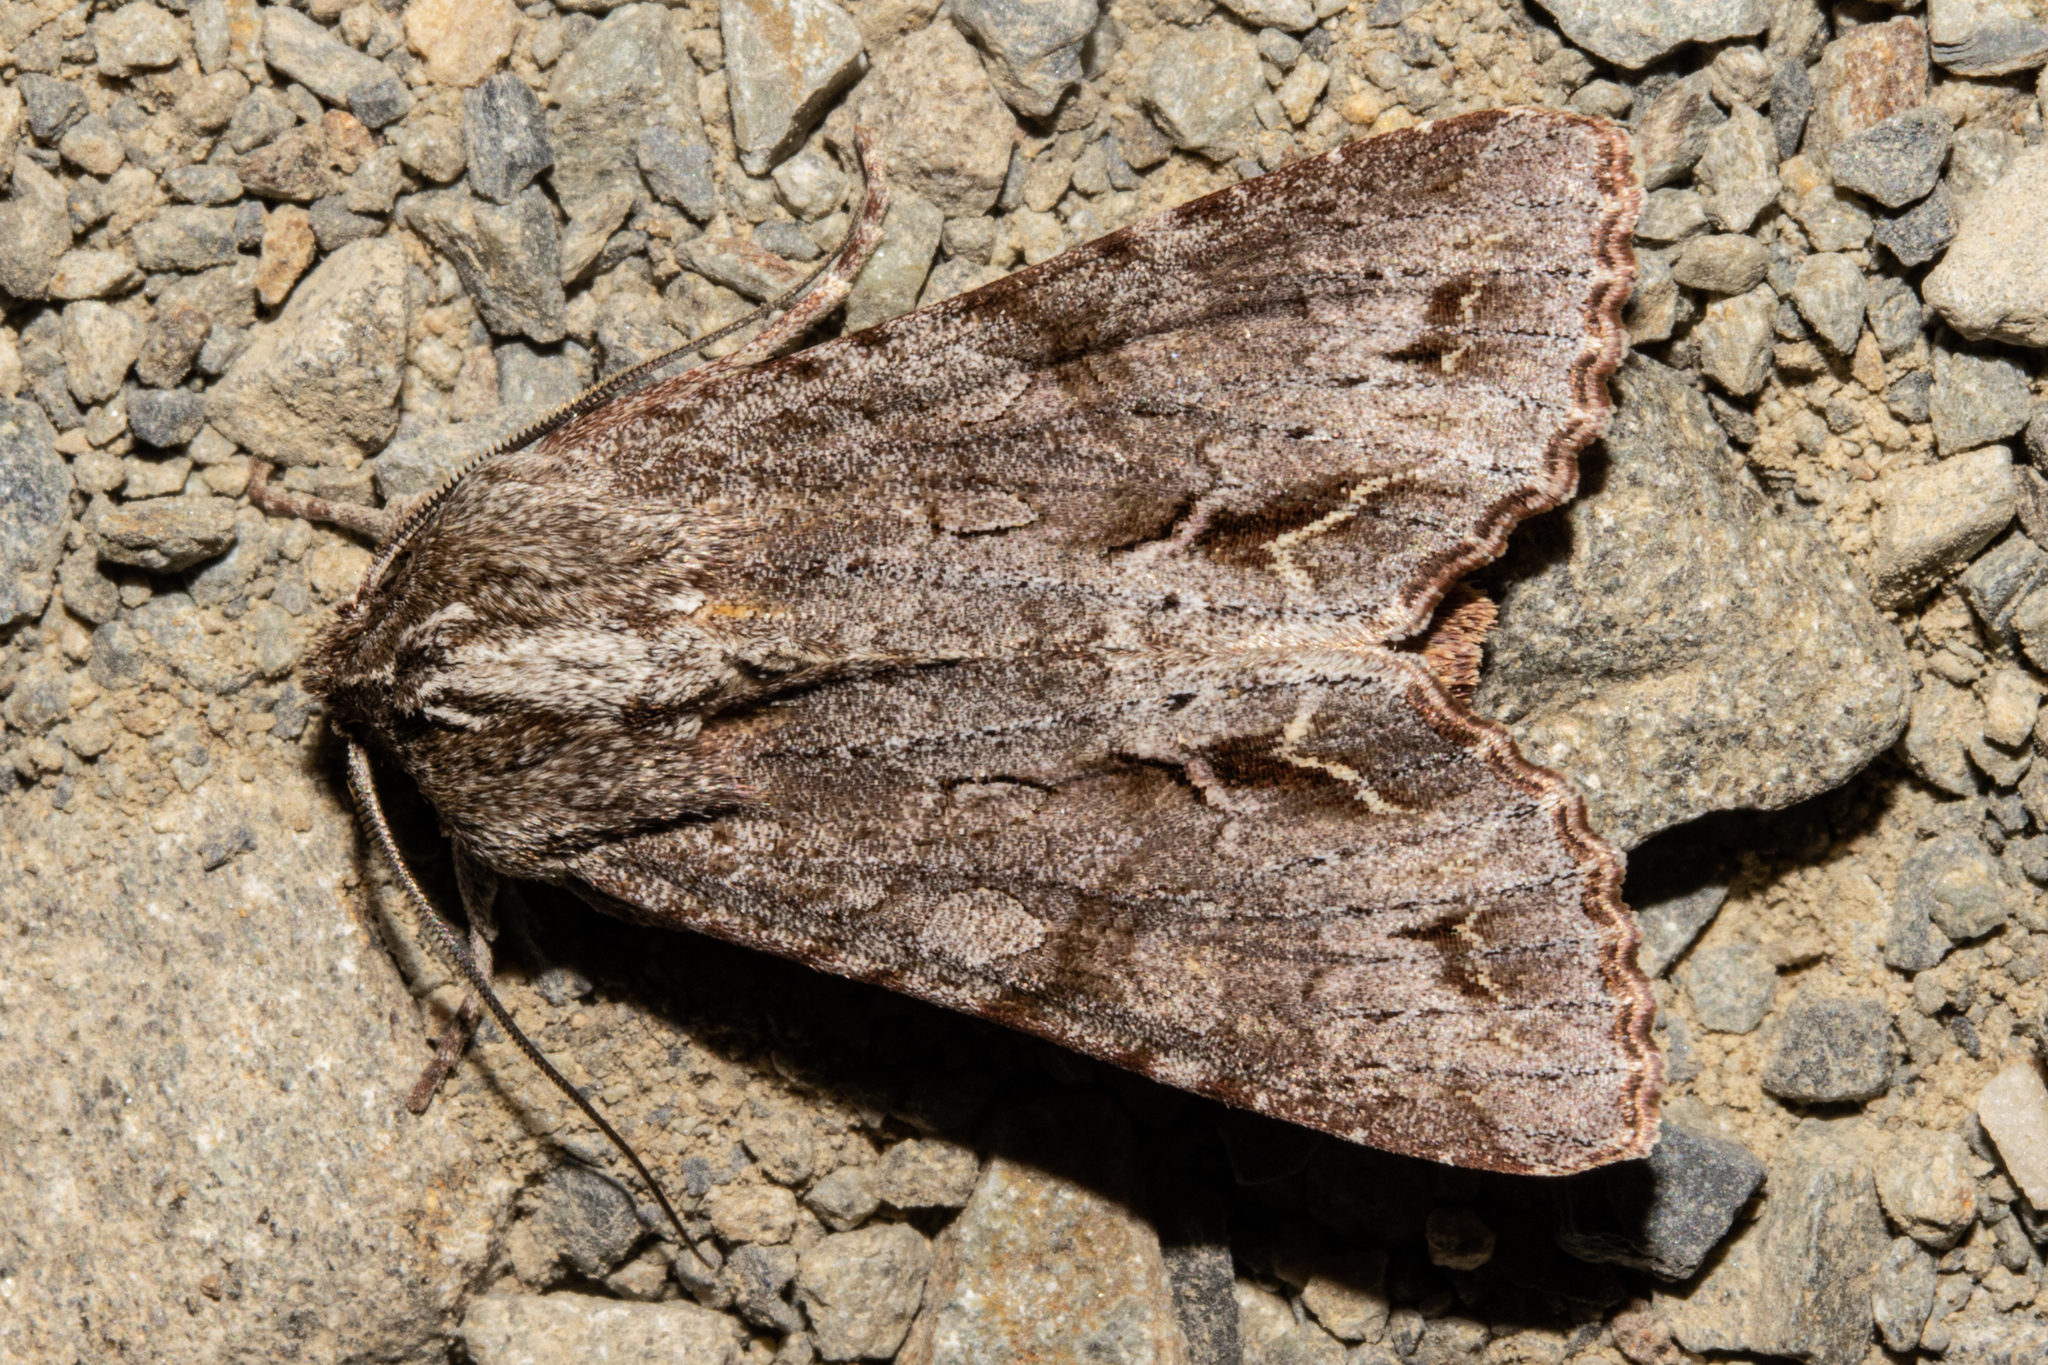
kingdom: Animalia
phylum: Arthropoda
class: Insecta
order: Lepidoptera
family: Noctuidae
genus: Ichneutica
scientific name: Ichneutica
